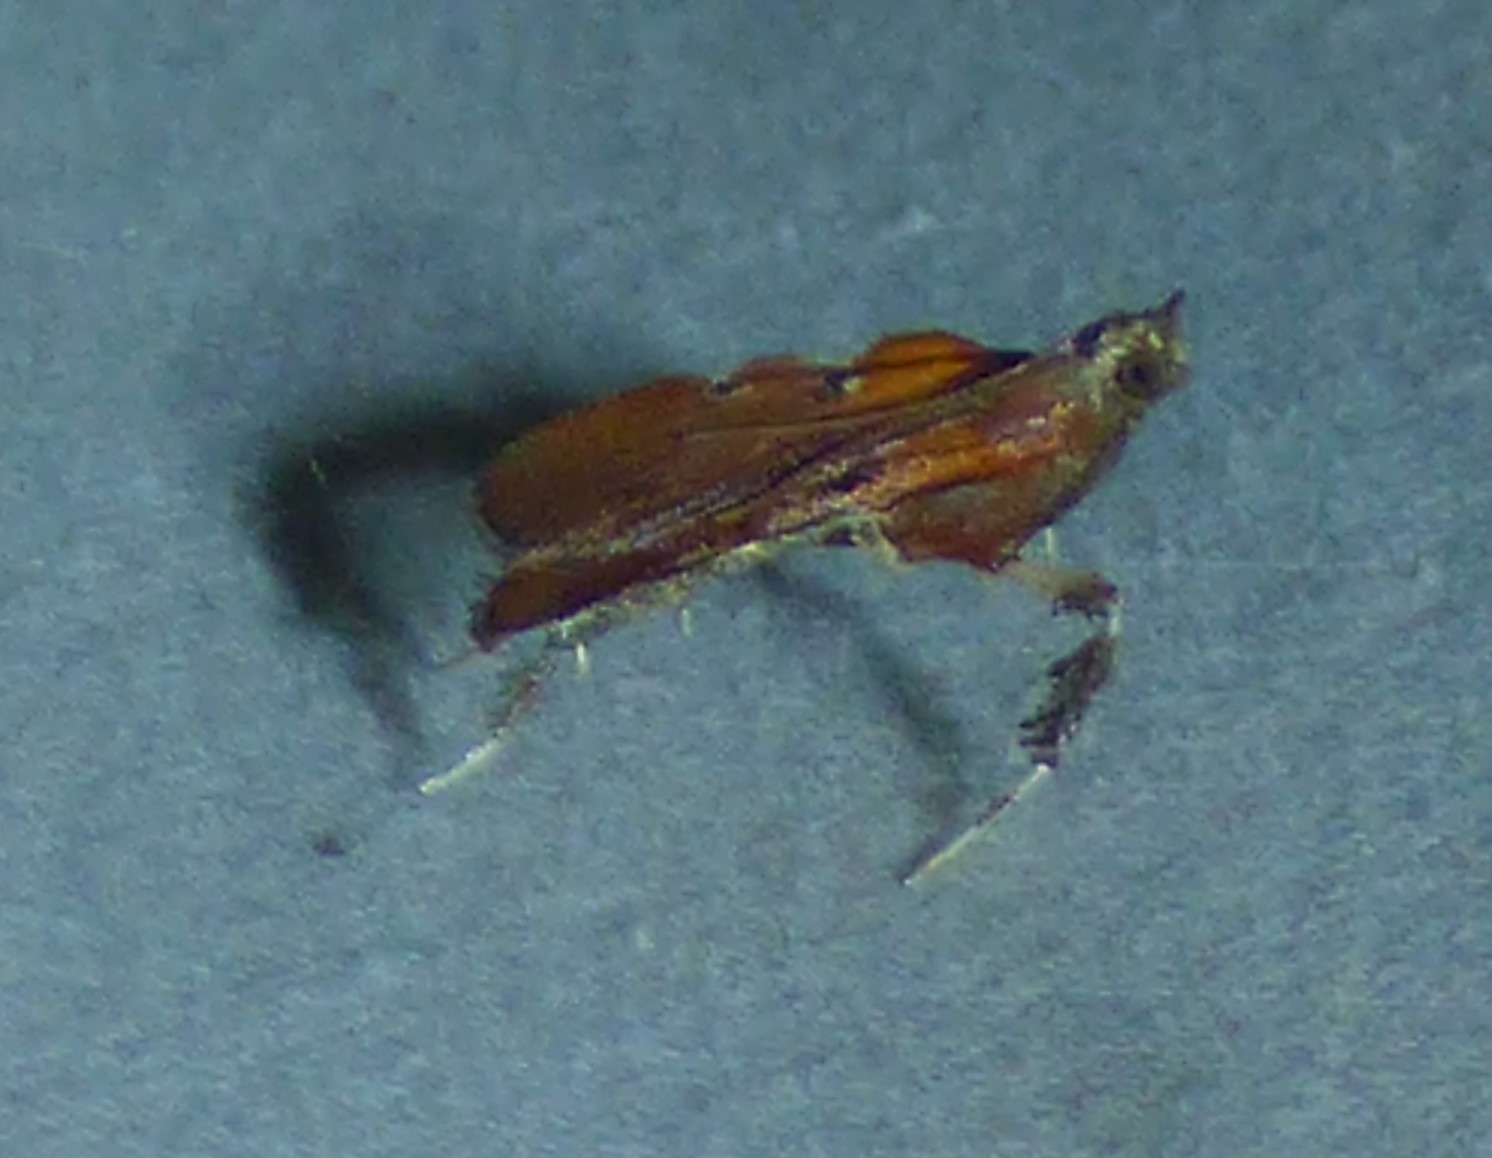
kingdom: Animalia
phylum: Arthropoda
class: Insecta
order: Lepidoptera
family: Pyralidae
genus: Galasa
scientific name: Galasa nigrinodis
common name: Boxwood leaftier moth
